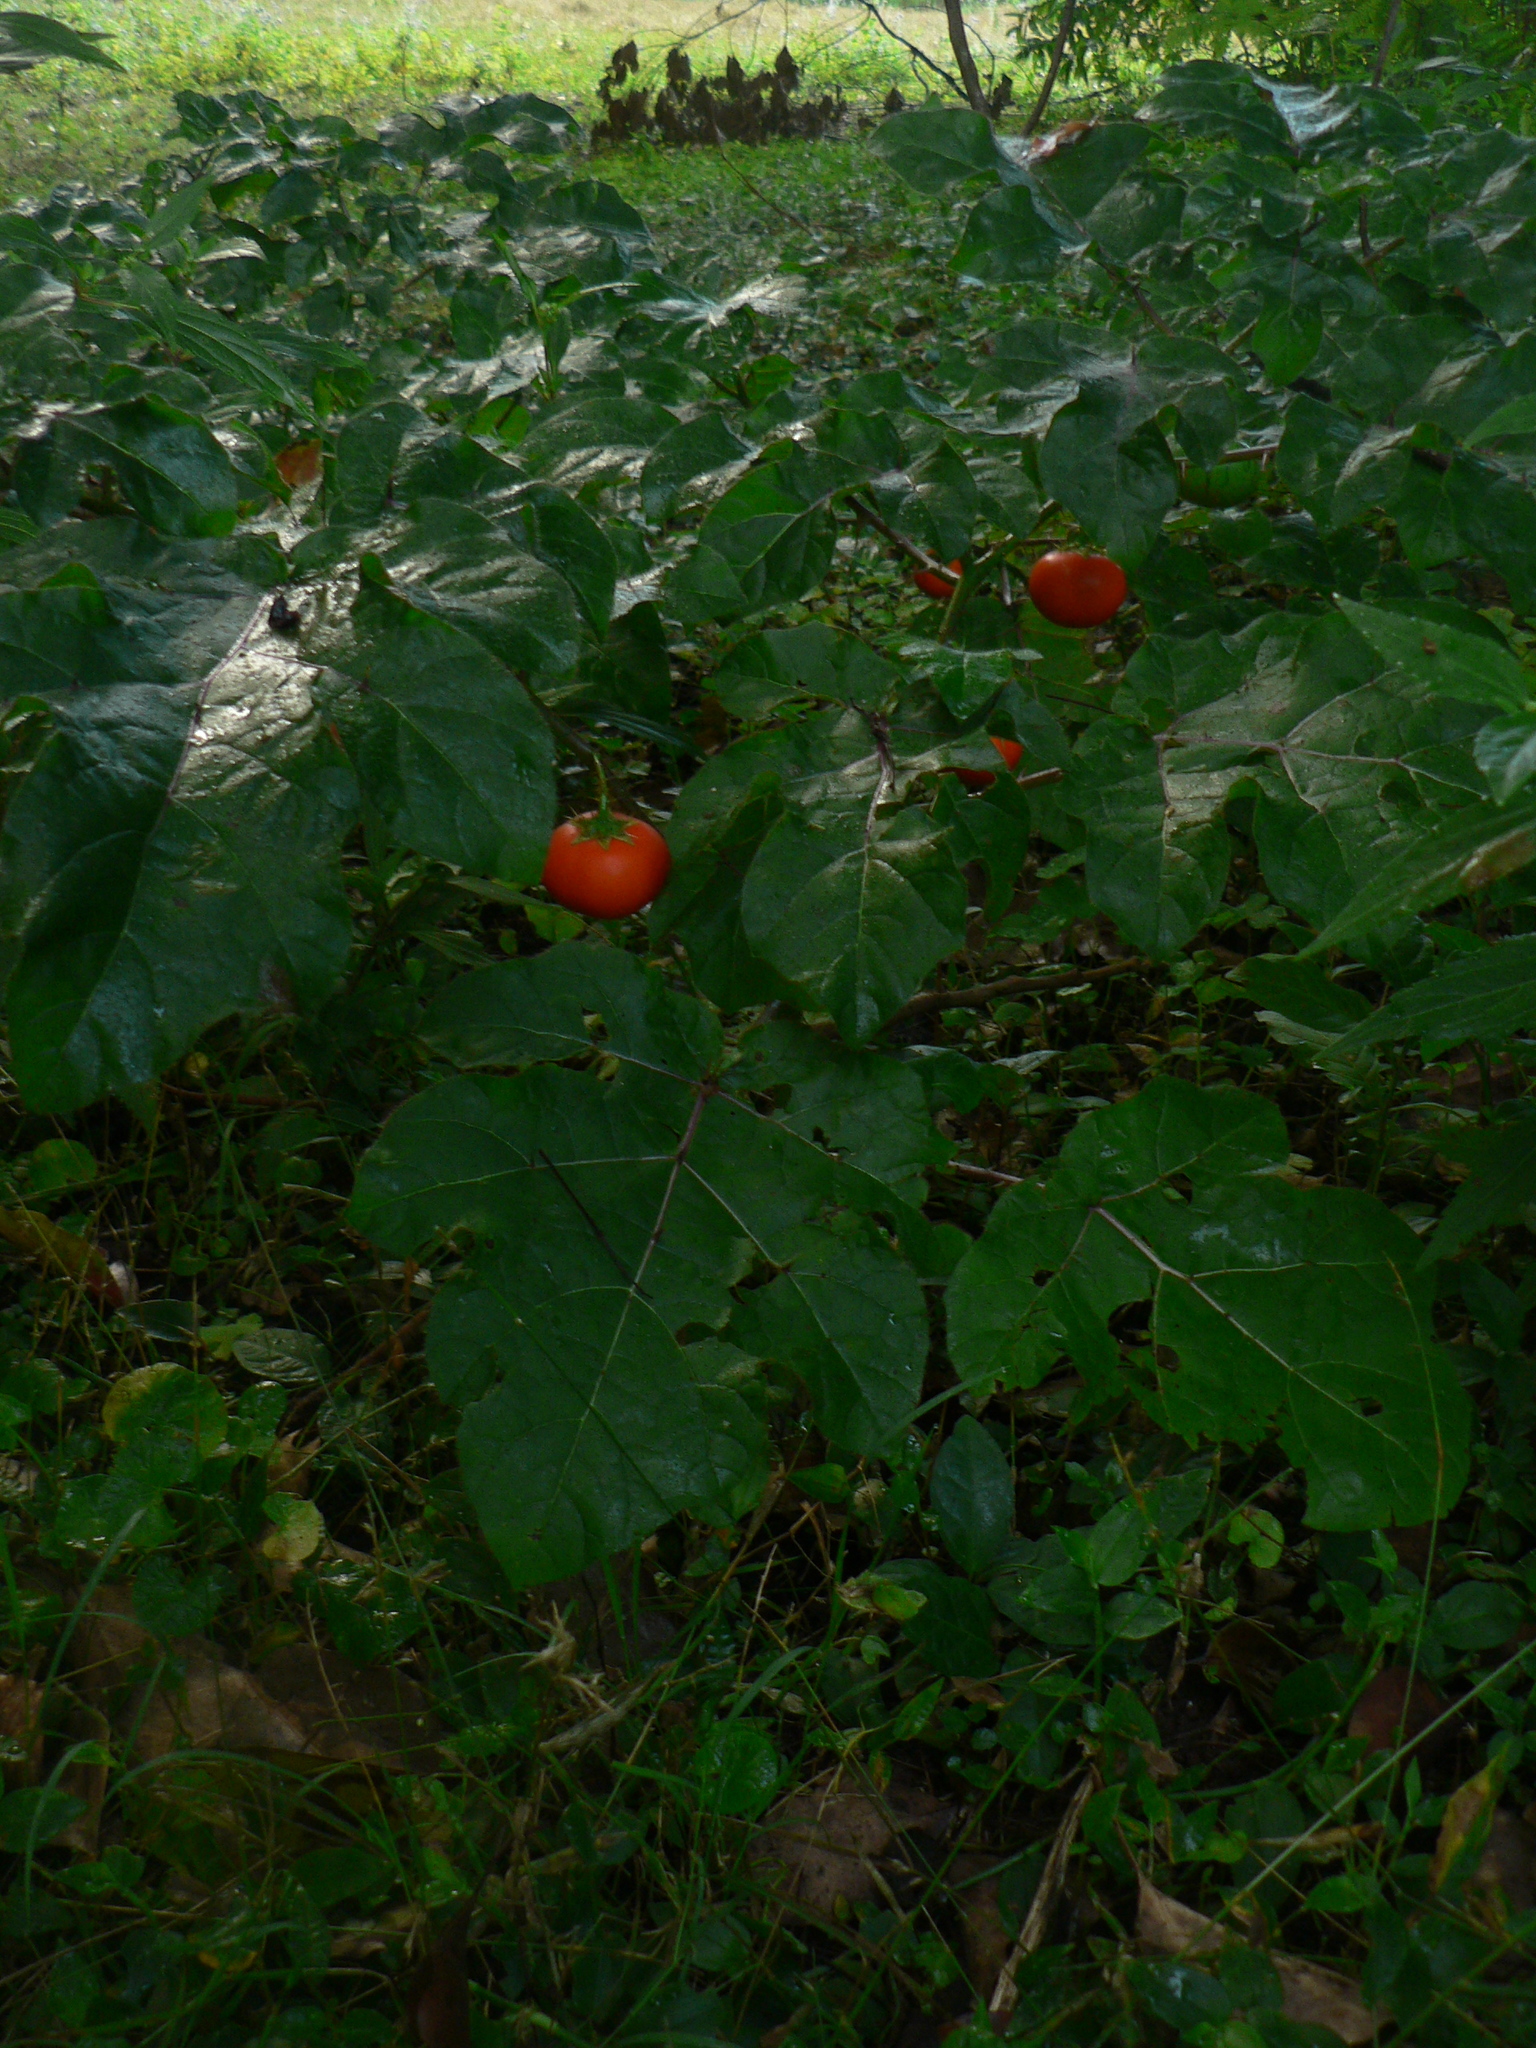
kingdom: Plantae
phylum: Tracheophyta
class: Magnoliopsida
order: Solanales
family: Solanaceae
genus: Solanum
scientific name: Solanum capsicoides
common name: Cockroach berry
